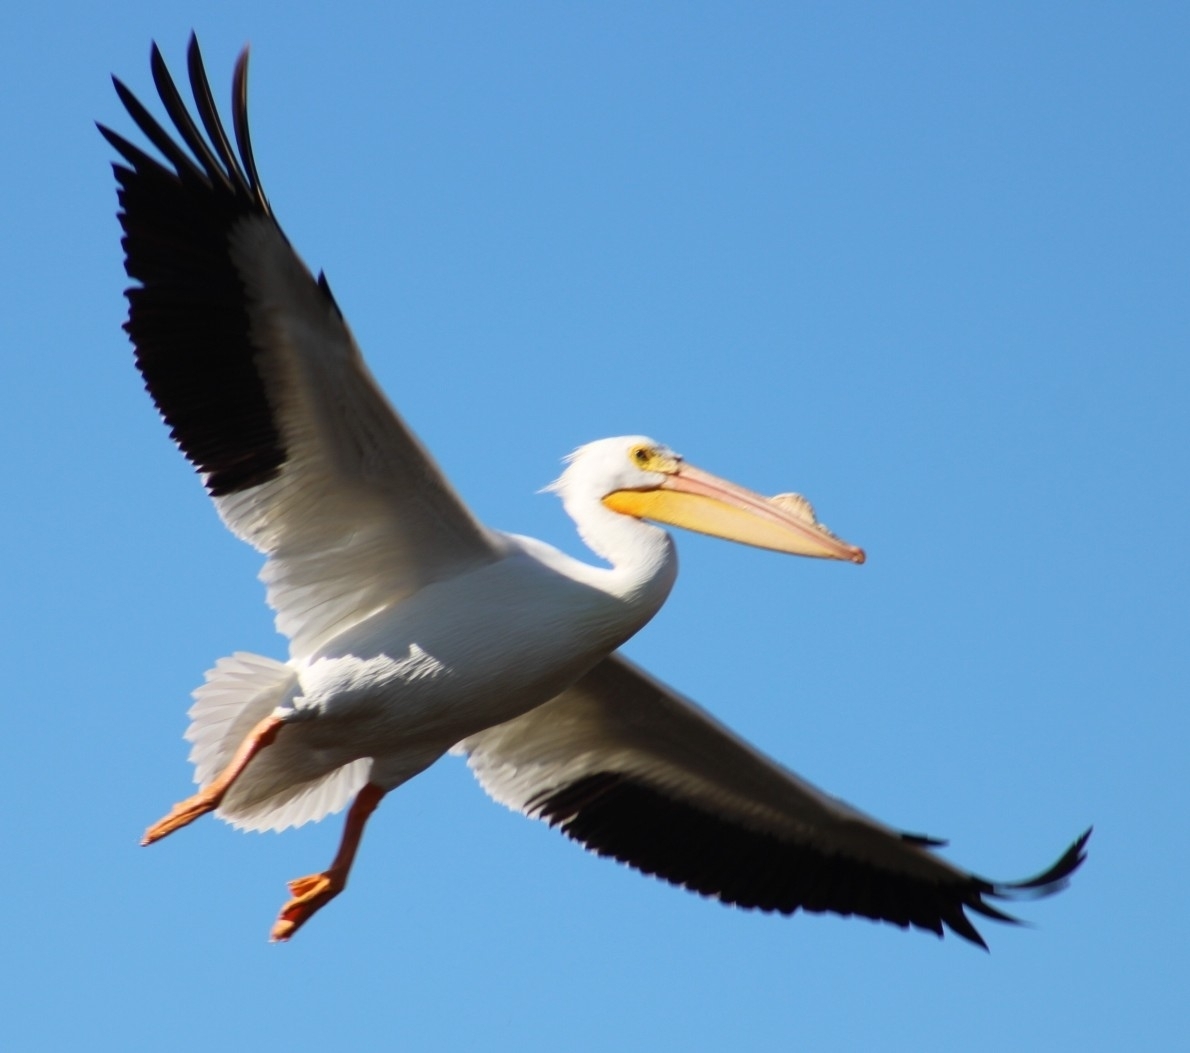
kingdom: Animalia
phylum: Chordata
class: Aves
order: Pelecaniformes
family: Pelecanidae
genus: Pelecanus
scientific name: Pelecanus erythrorhynchos
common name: American white pelican
